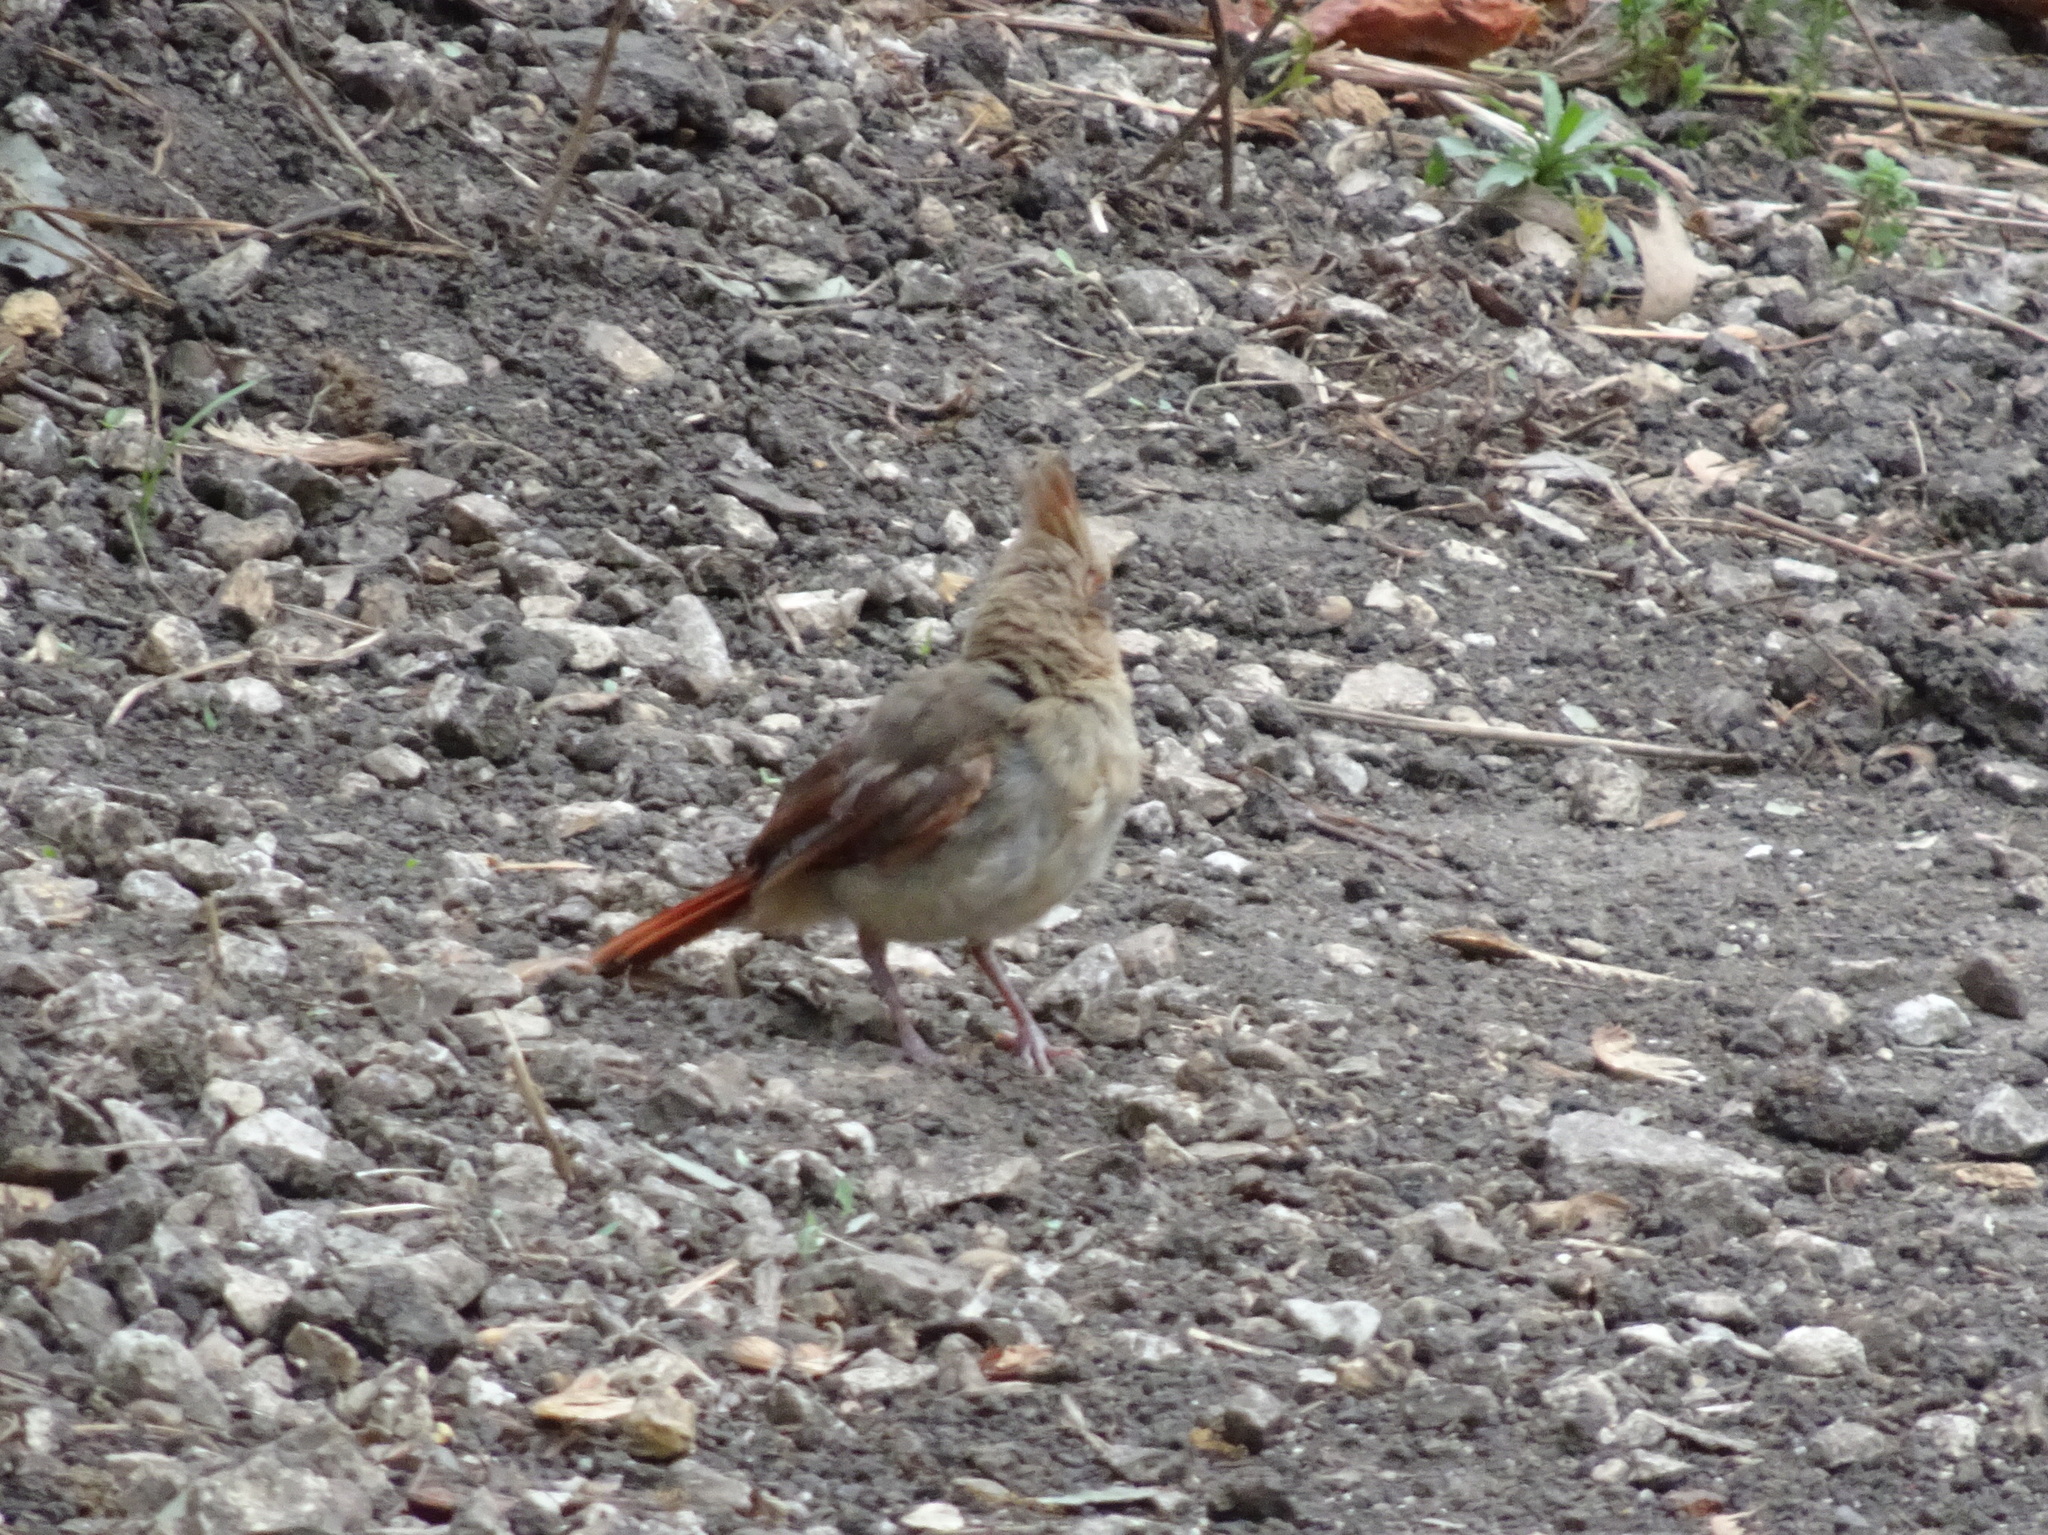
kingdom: Animalia
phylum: Chordata
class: Aves
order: Passeriformes
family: Cardinalidae
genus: Cardinalis
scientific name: Cardinalis cardinalis
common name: Northern cardinal
